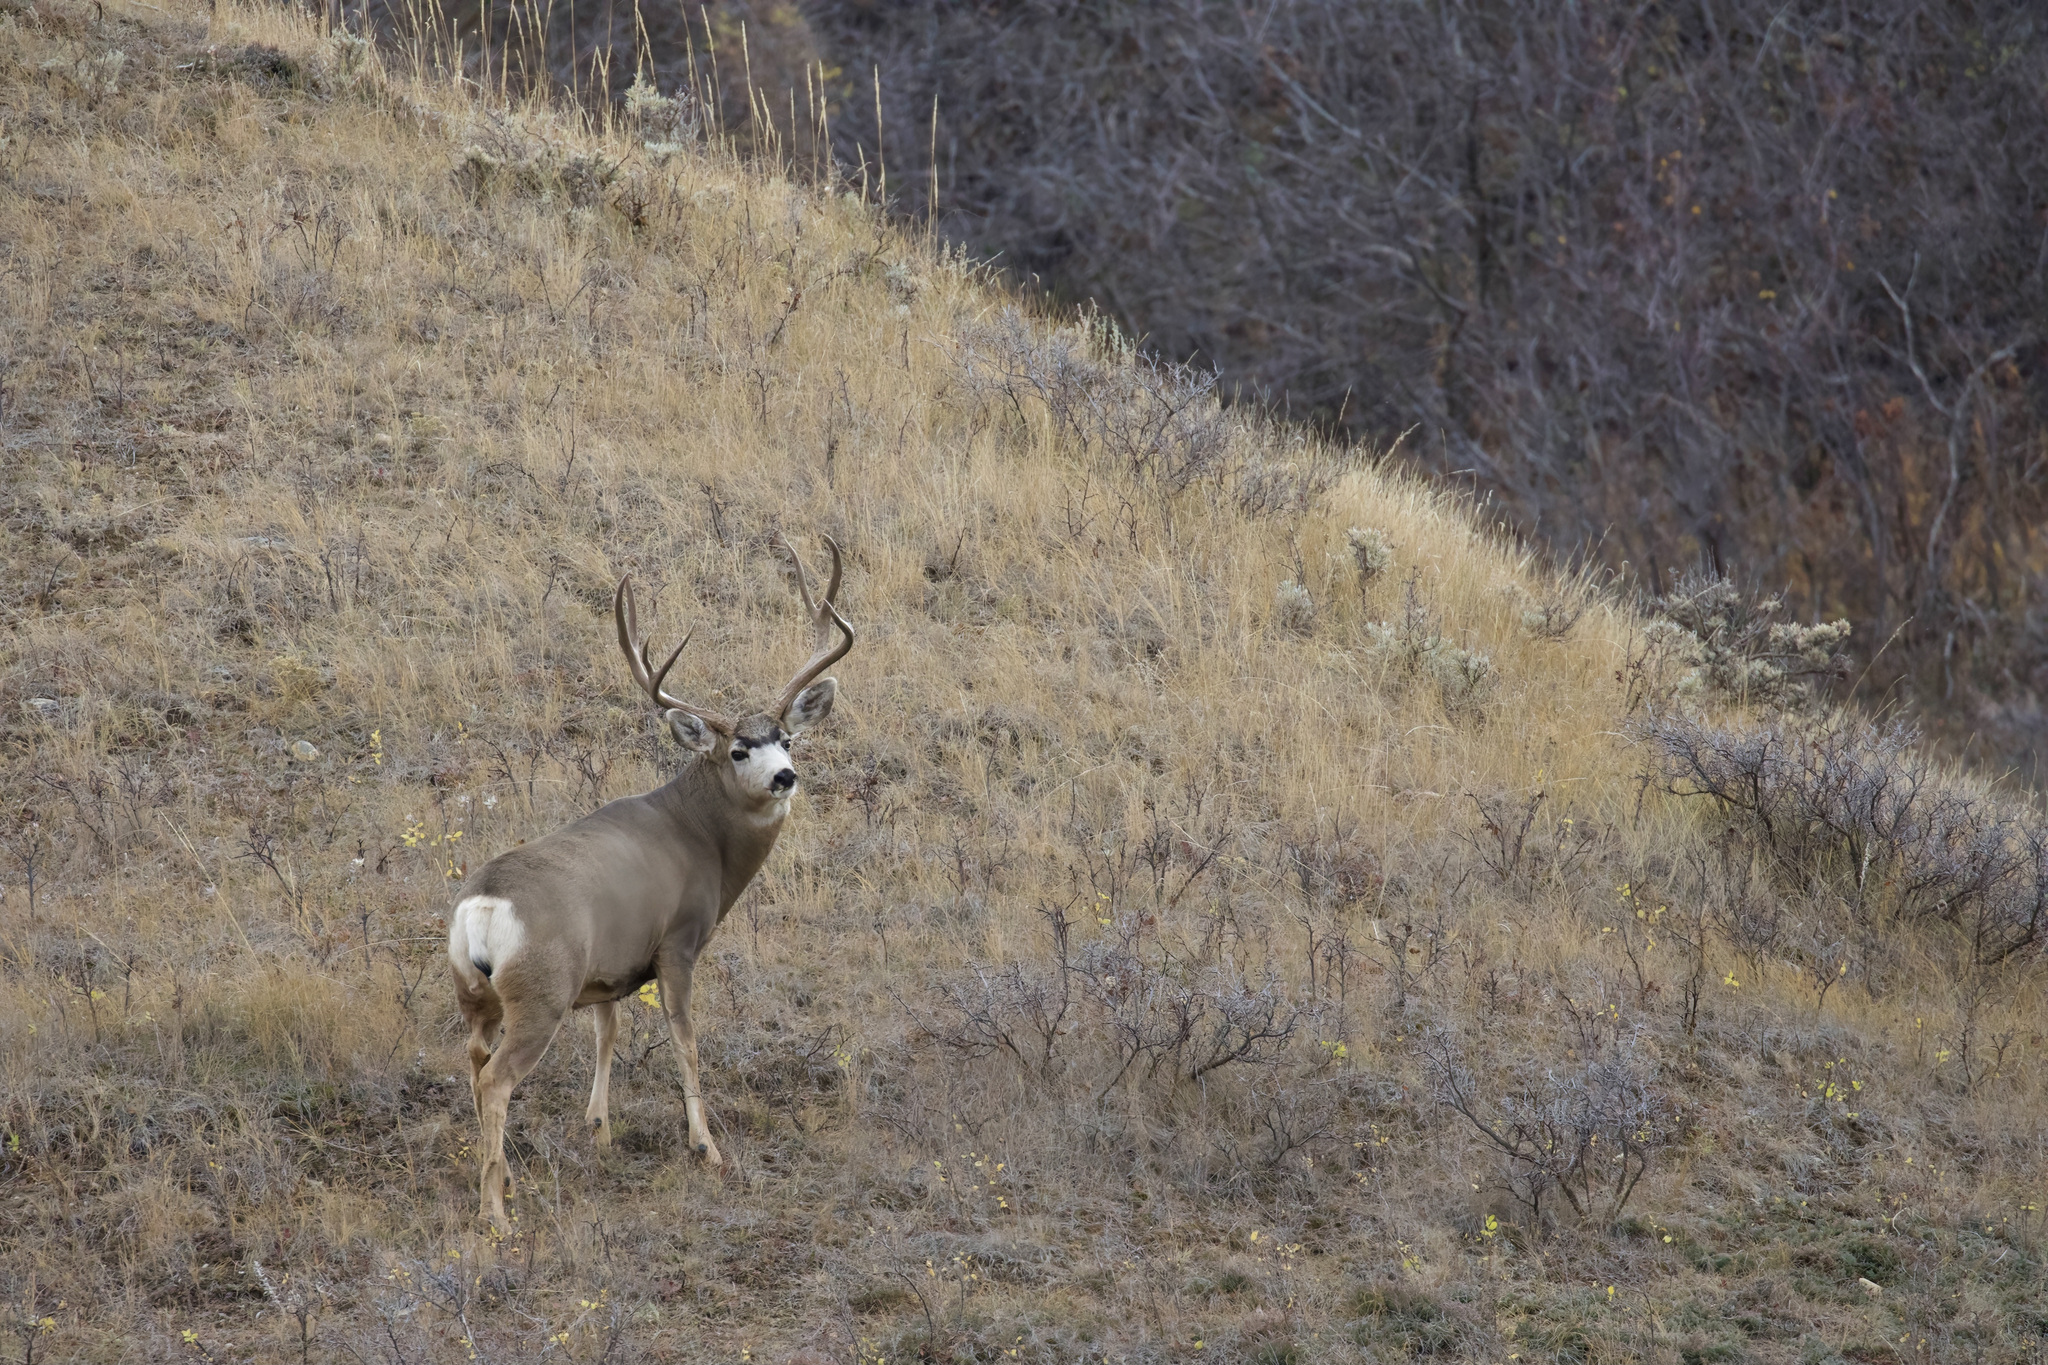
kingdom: Animalia
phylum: Chordata
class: Mammalia
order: Artiodactyla
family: Cervidae
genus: Odocoileus
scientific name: Odocoileus hemionus
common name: Mule deer
